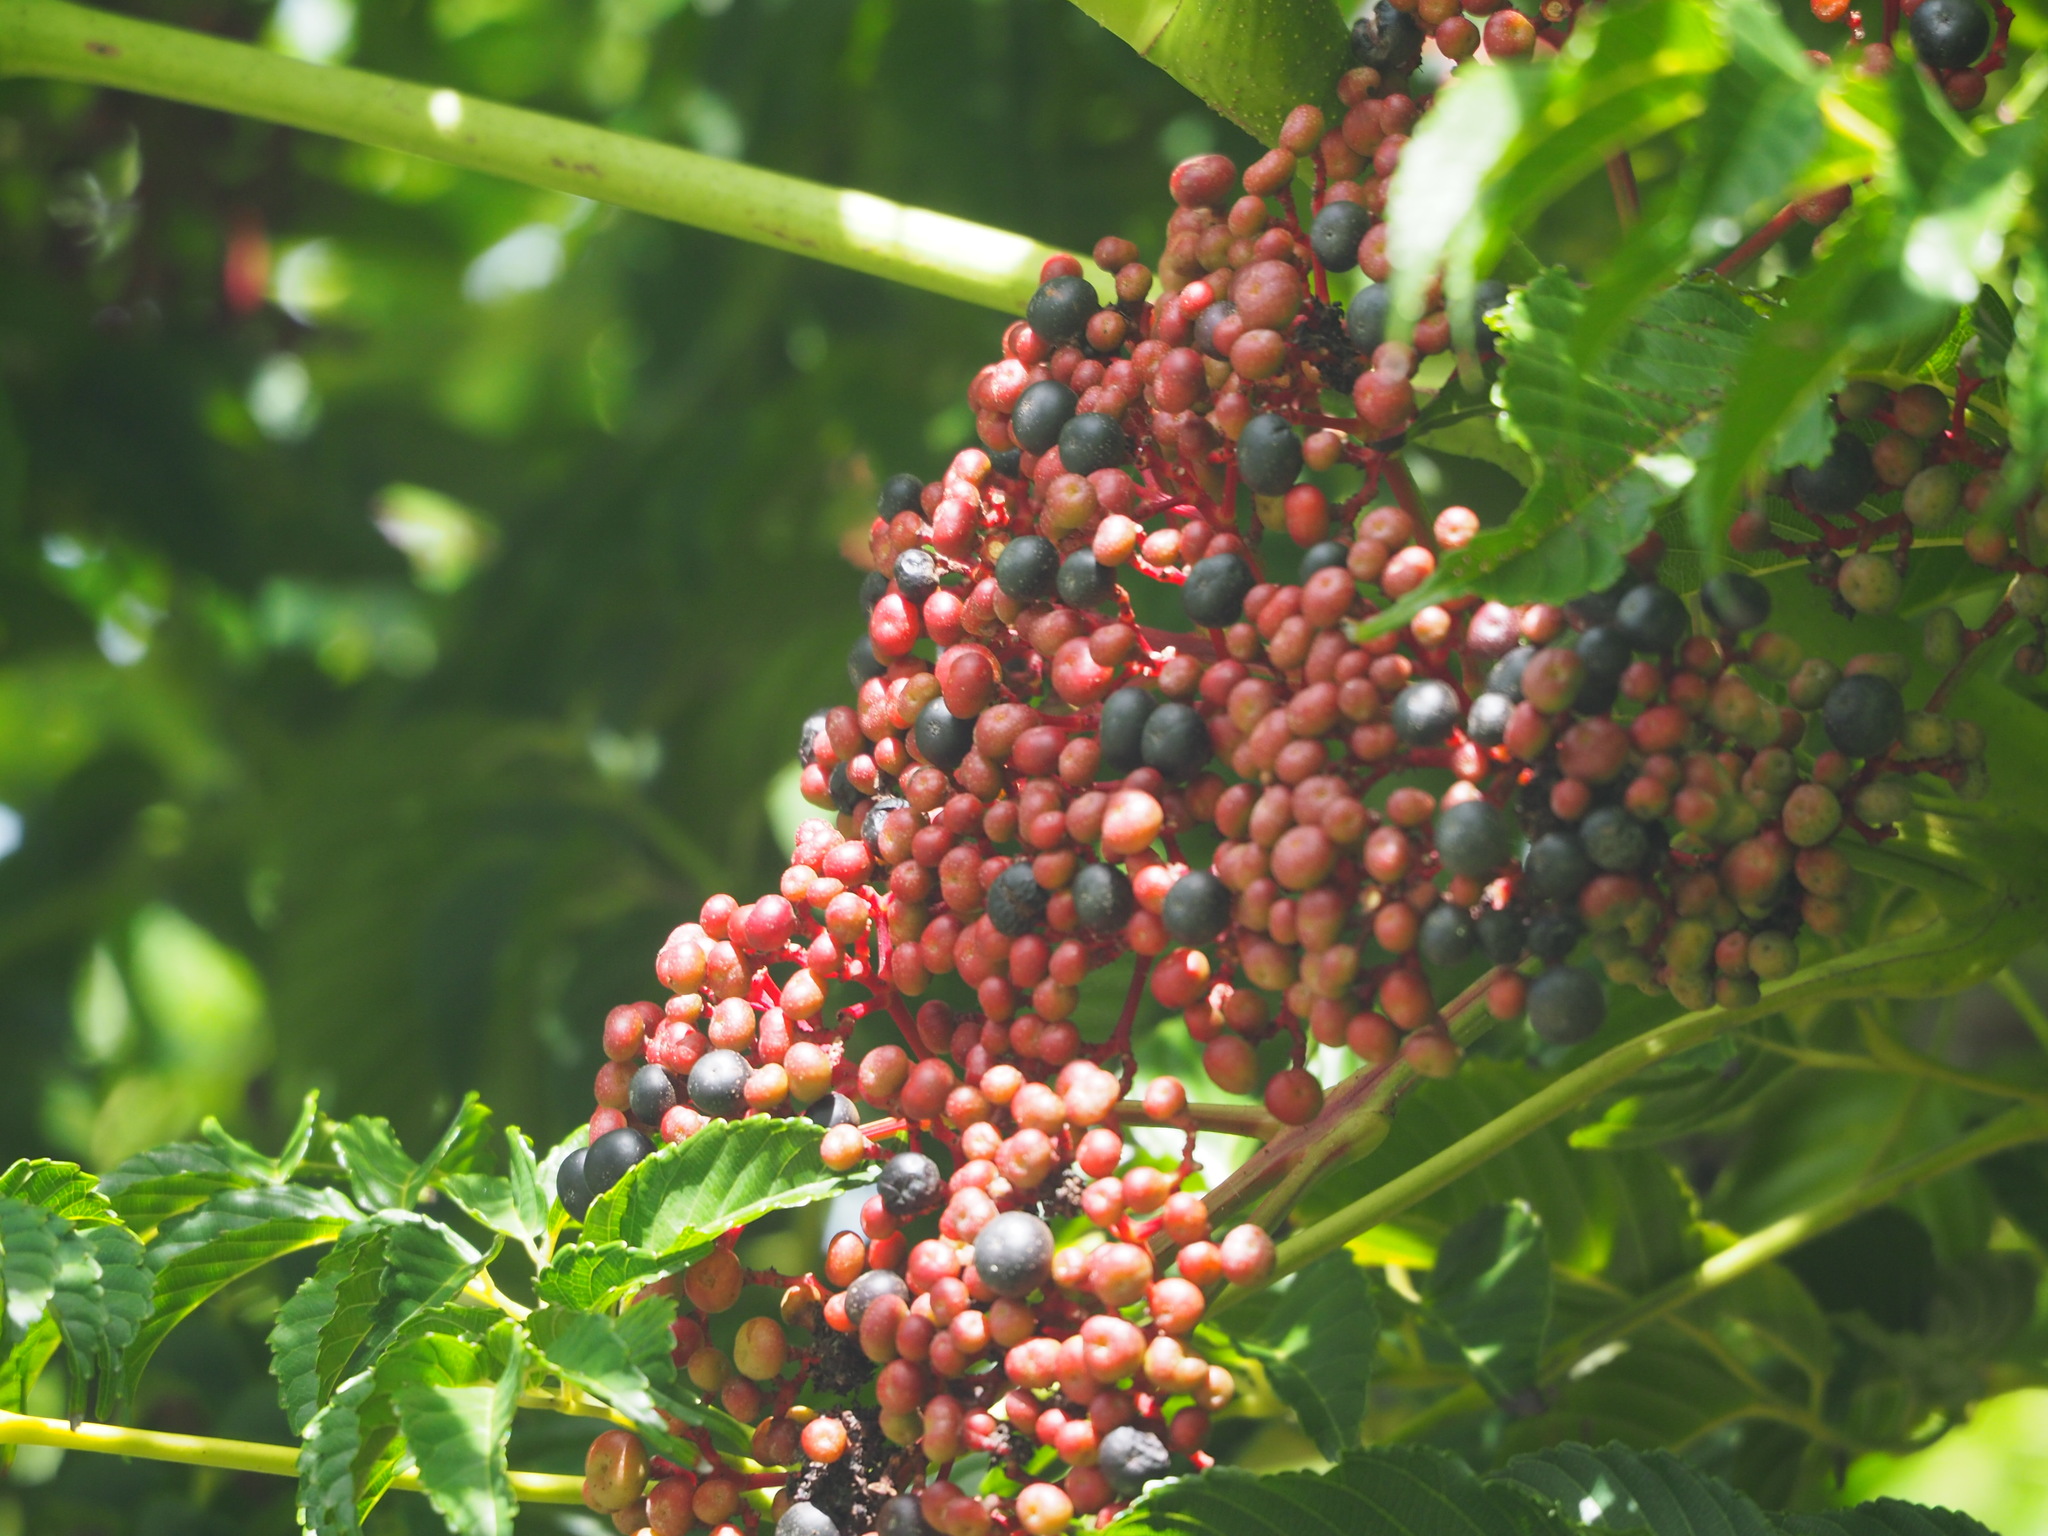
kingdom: Plantae
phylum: Tracheophyta
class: Magnoliopsida
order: Vitales
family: Vitaceae
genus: Leea
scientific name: Leea guineensis
